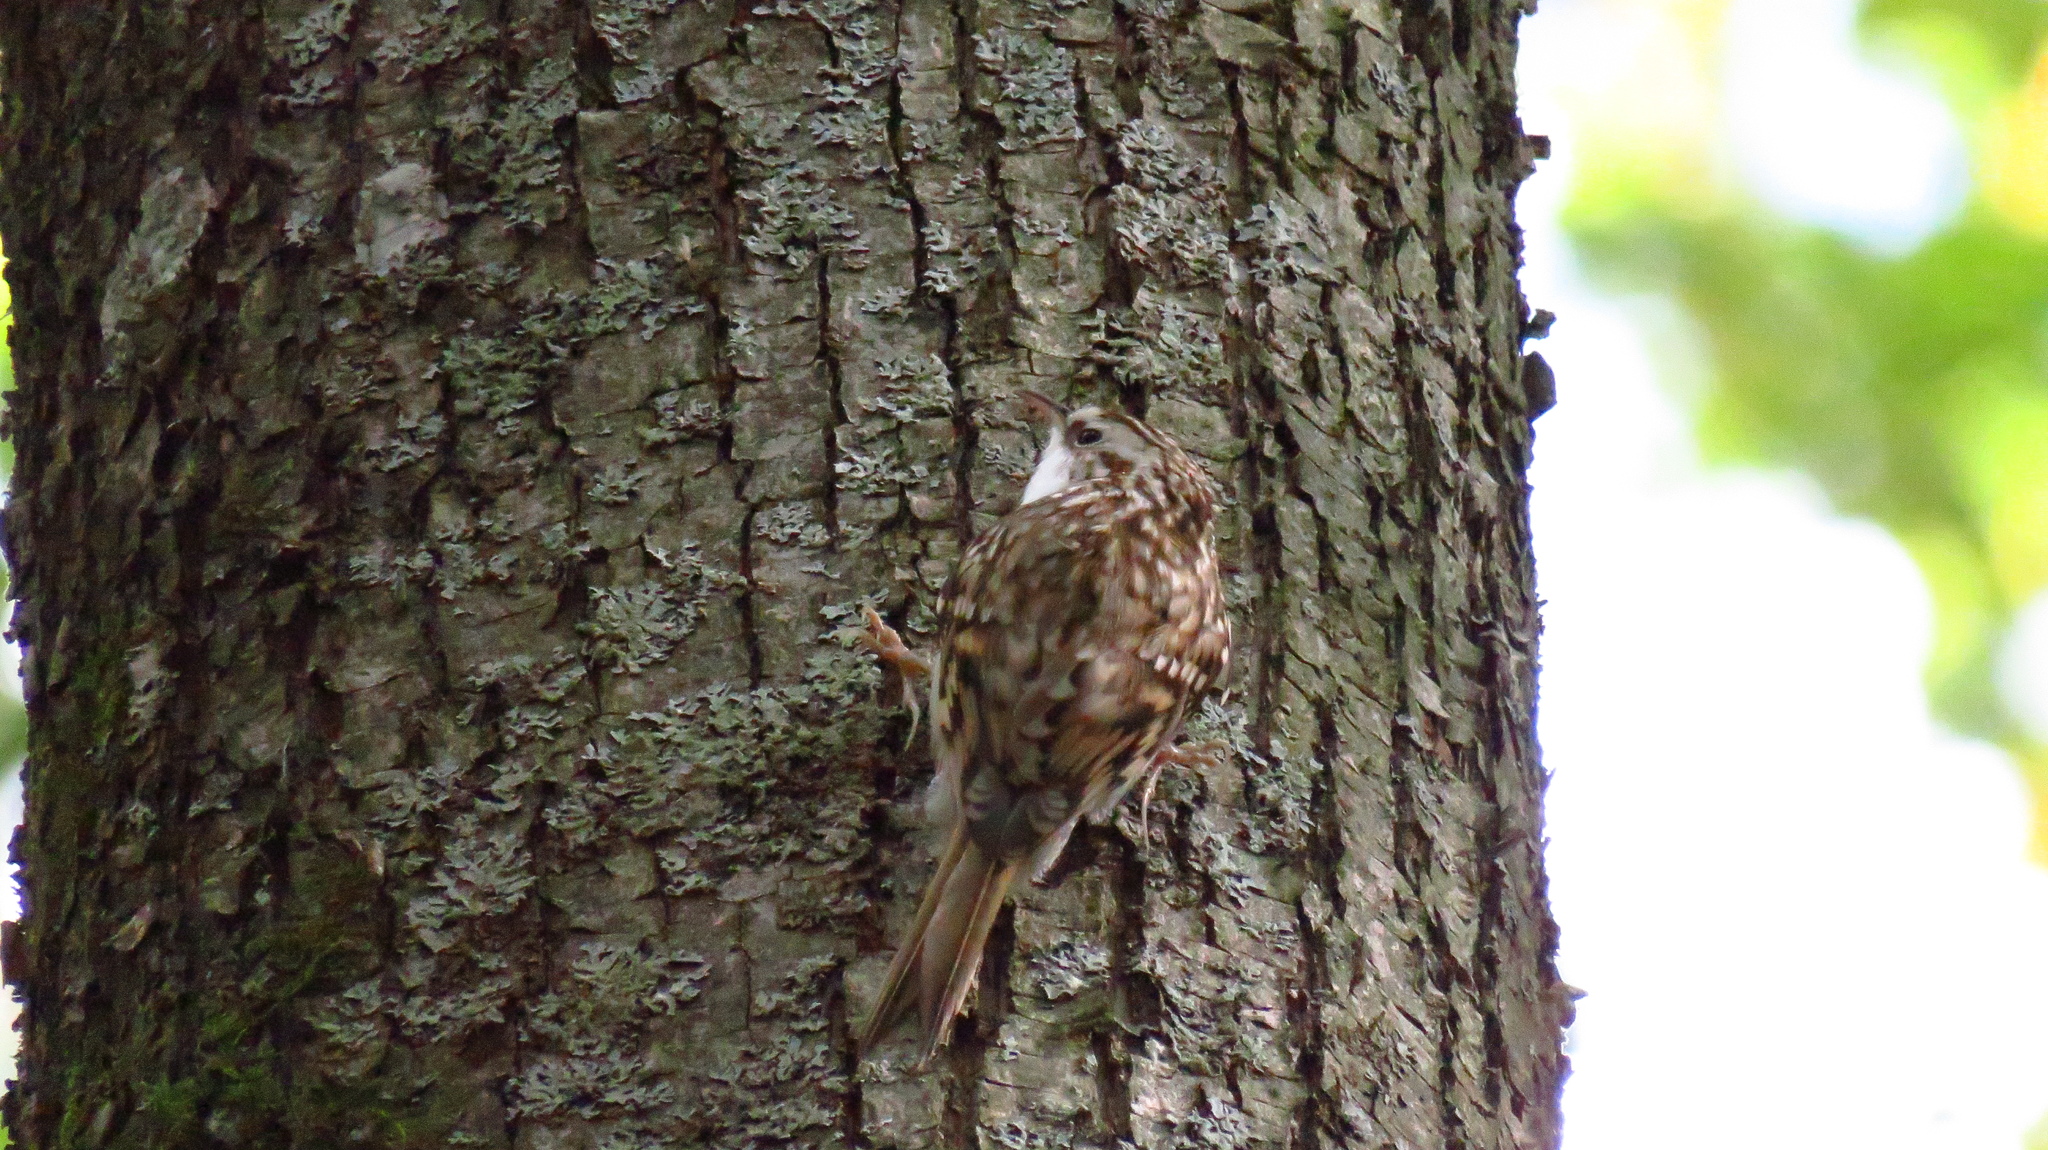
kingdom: Animalia
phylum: Chordata
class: Aves
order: Passeriformes
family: Certhiidae
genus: Certhia
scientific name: Certhia familiaris
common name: Eurasian treecreeper
